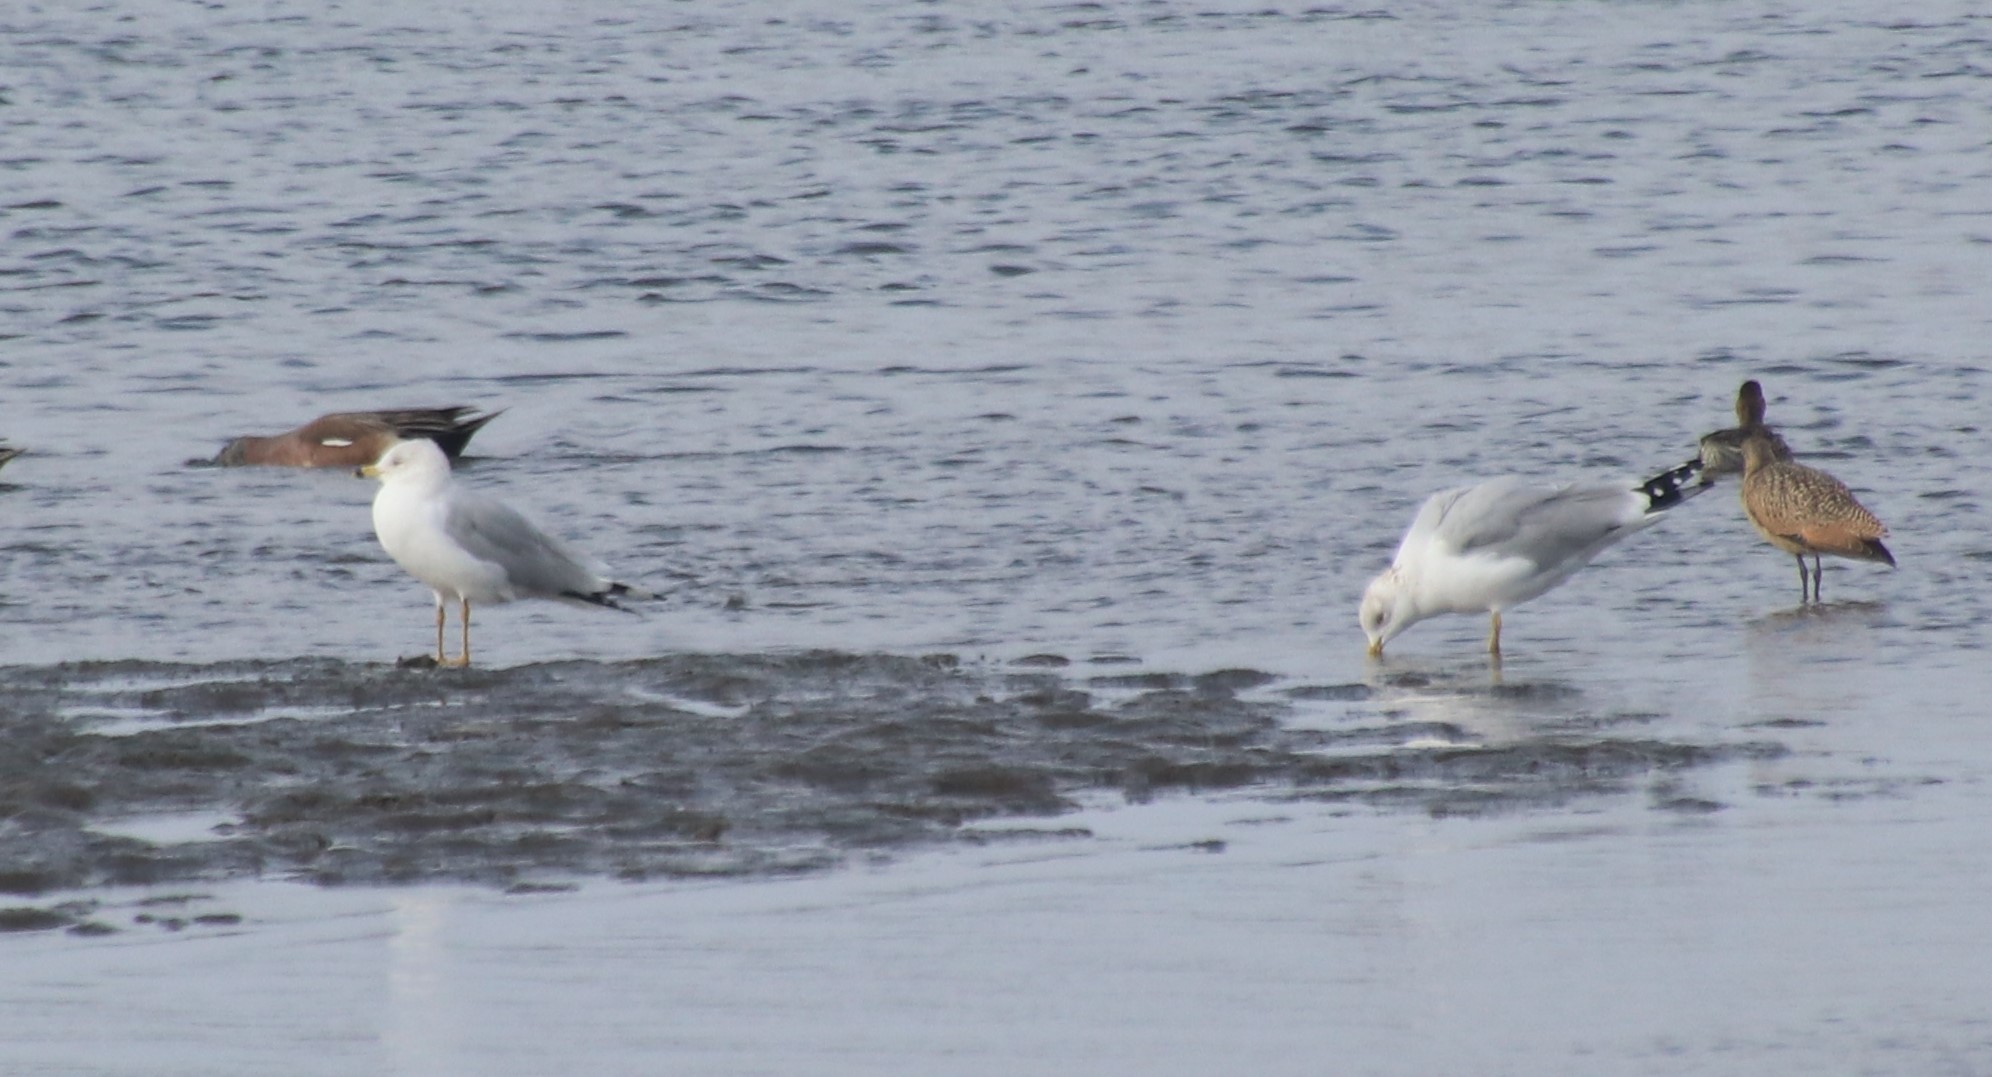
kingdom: Animalia
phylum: Chordata
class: Aves
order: Charadriiformes
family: Laridae
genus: Larus
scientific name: Larus delawarensis
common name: Ring-billed gull
